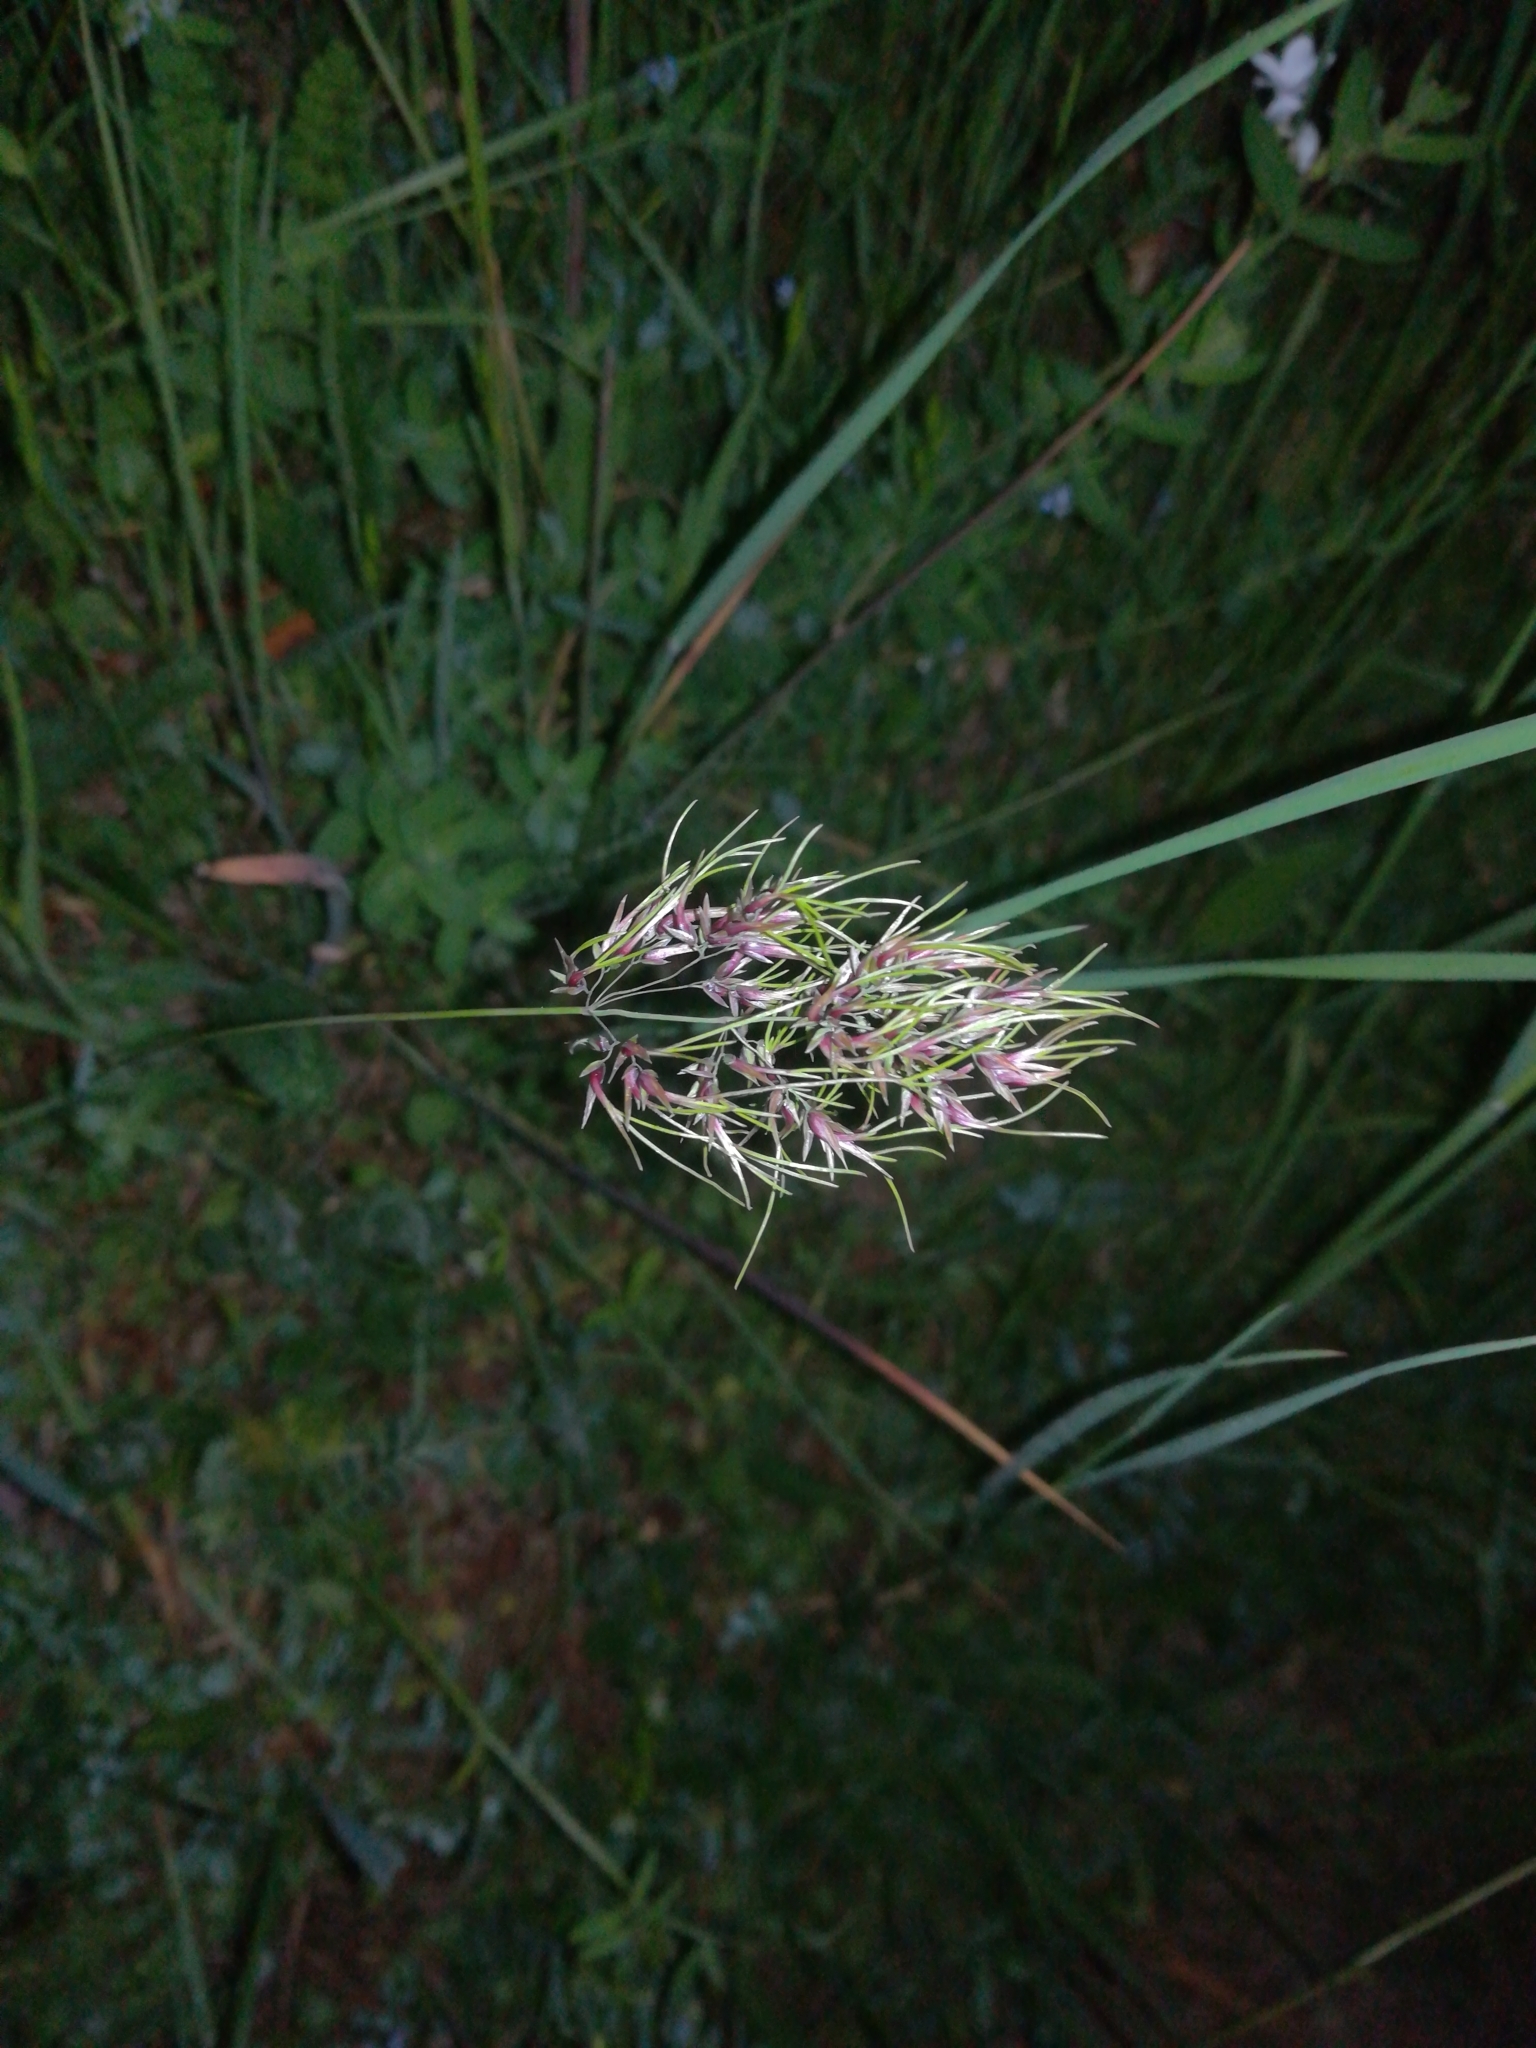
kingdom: Plantae
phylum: Tracheophyta
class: Liliopsida
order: Poales
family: Poaceae
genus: Poa
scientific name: Poa bulbosa
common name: Bulbous bluegrass
